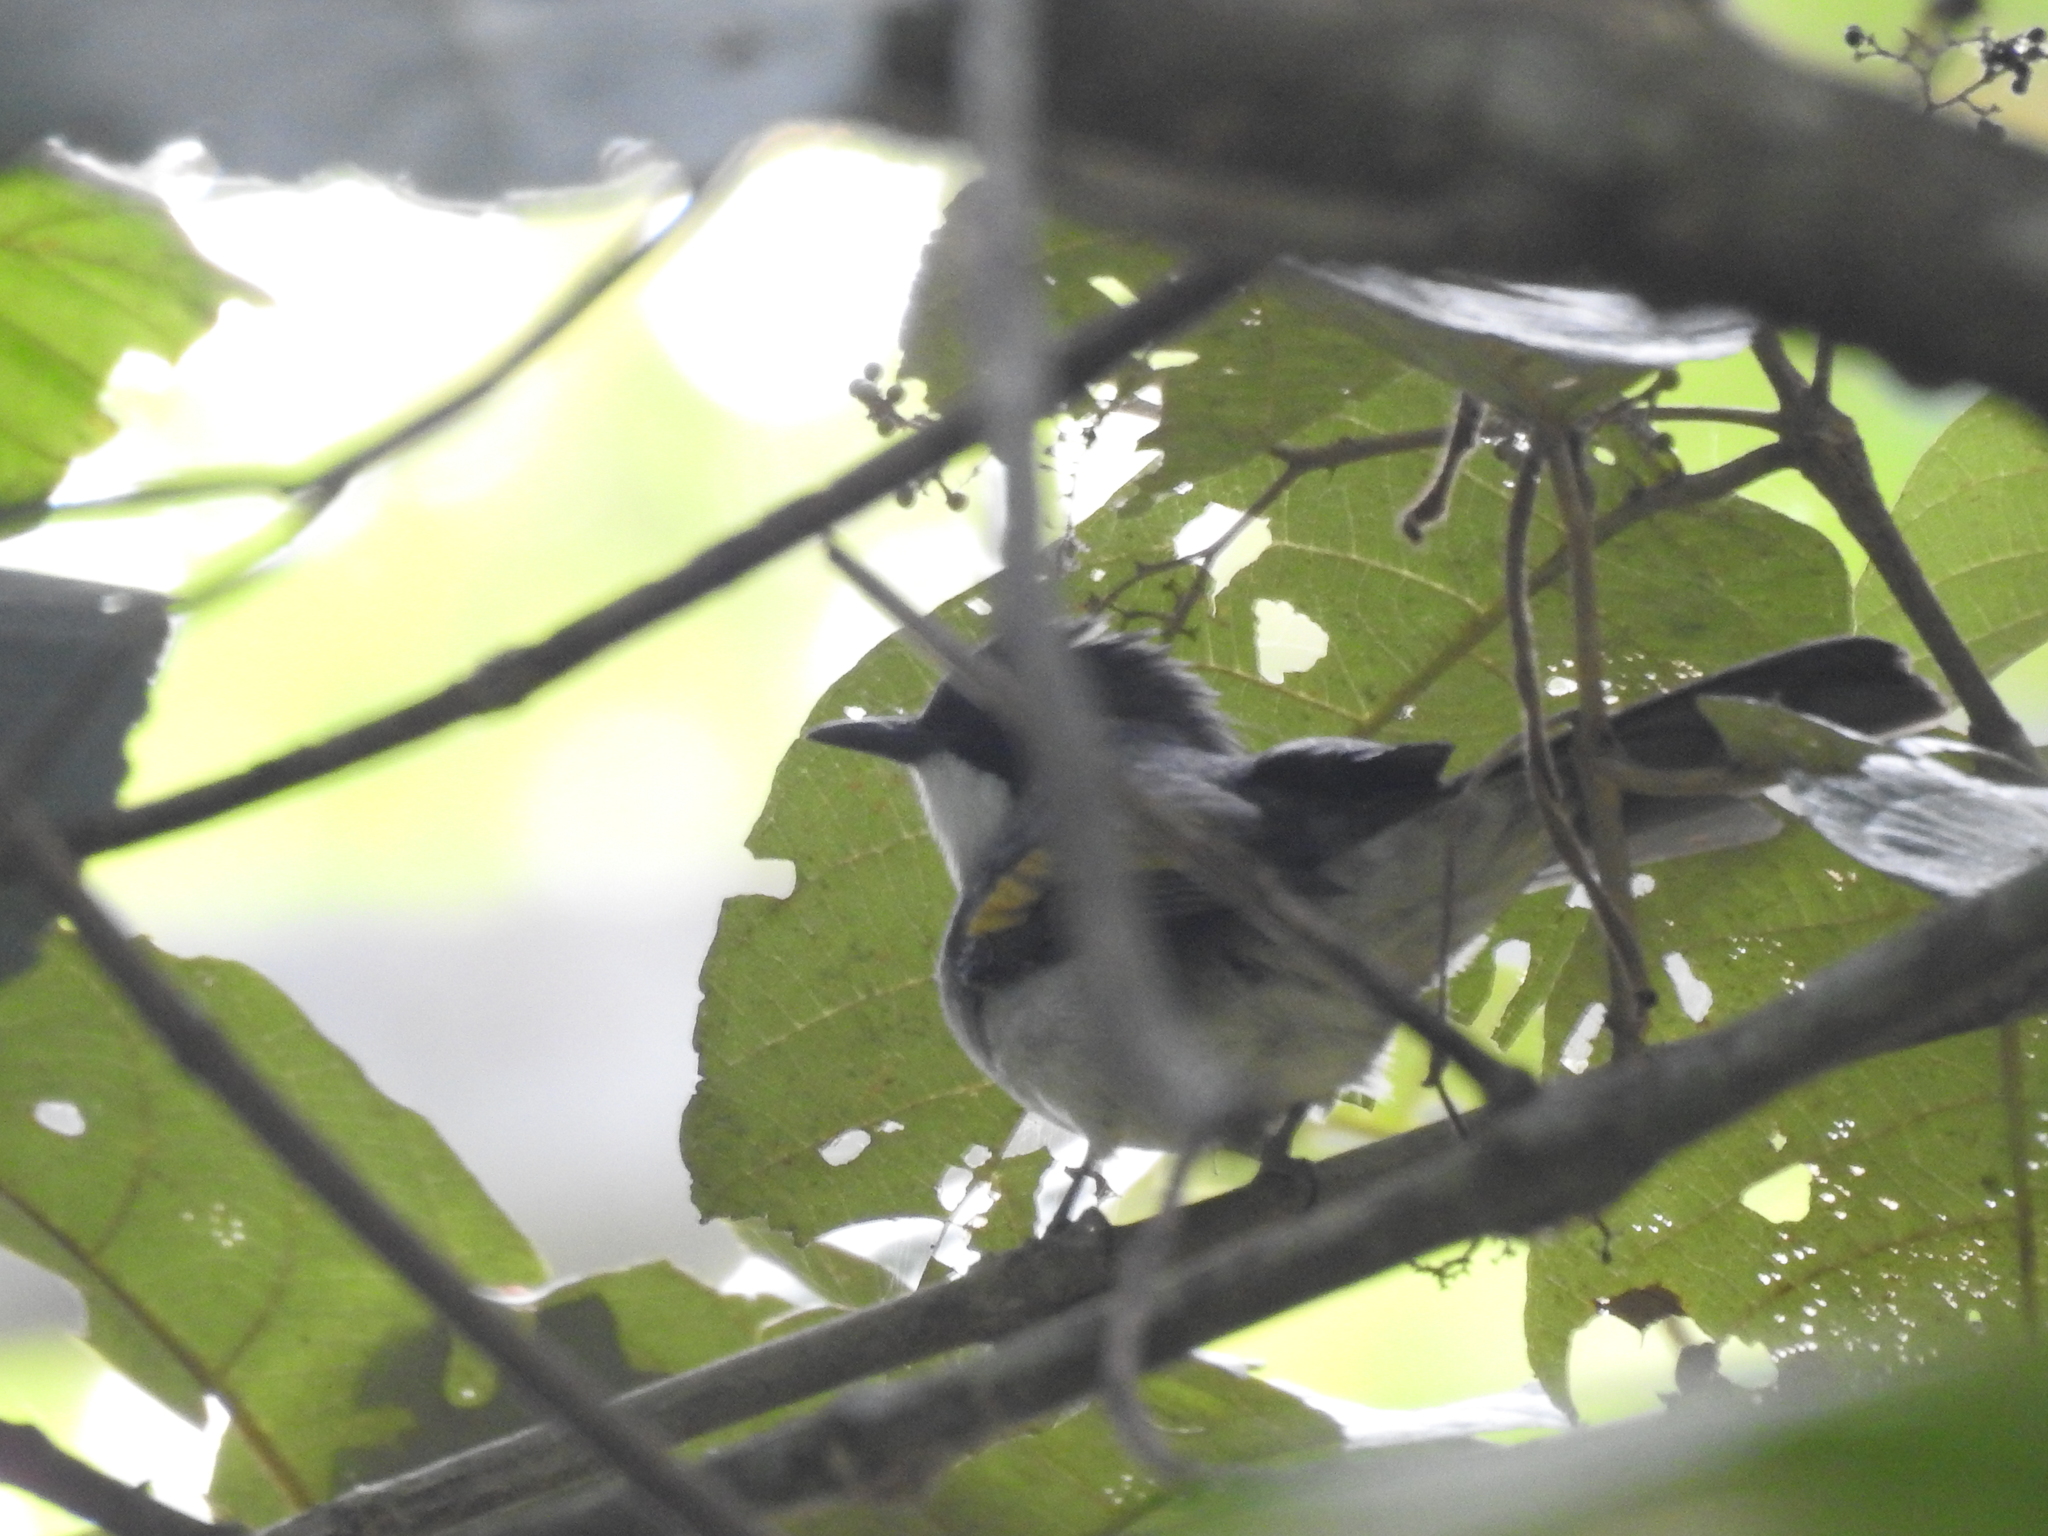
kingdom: Animalia
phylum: Chordata
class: Aves
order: Passeriformes
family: Pycnonotidae
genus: Hemixos
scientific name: Hemixos flavala
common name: Ashy bulbul
